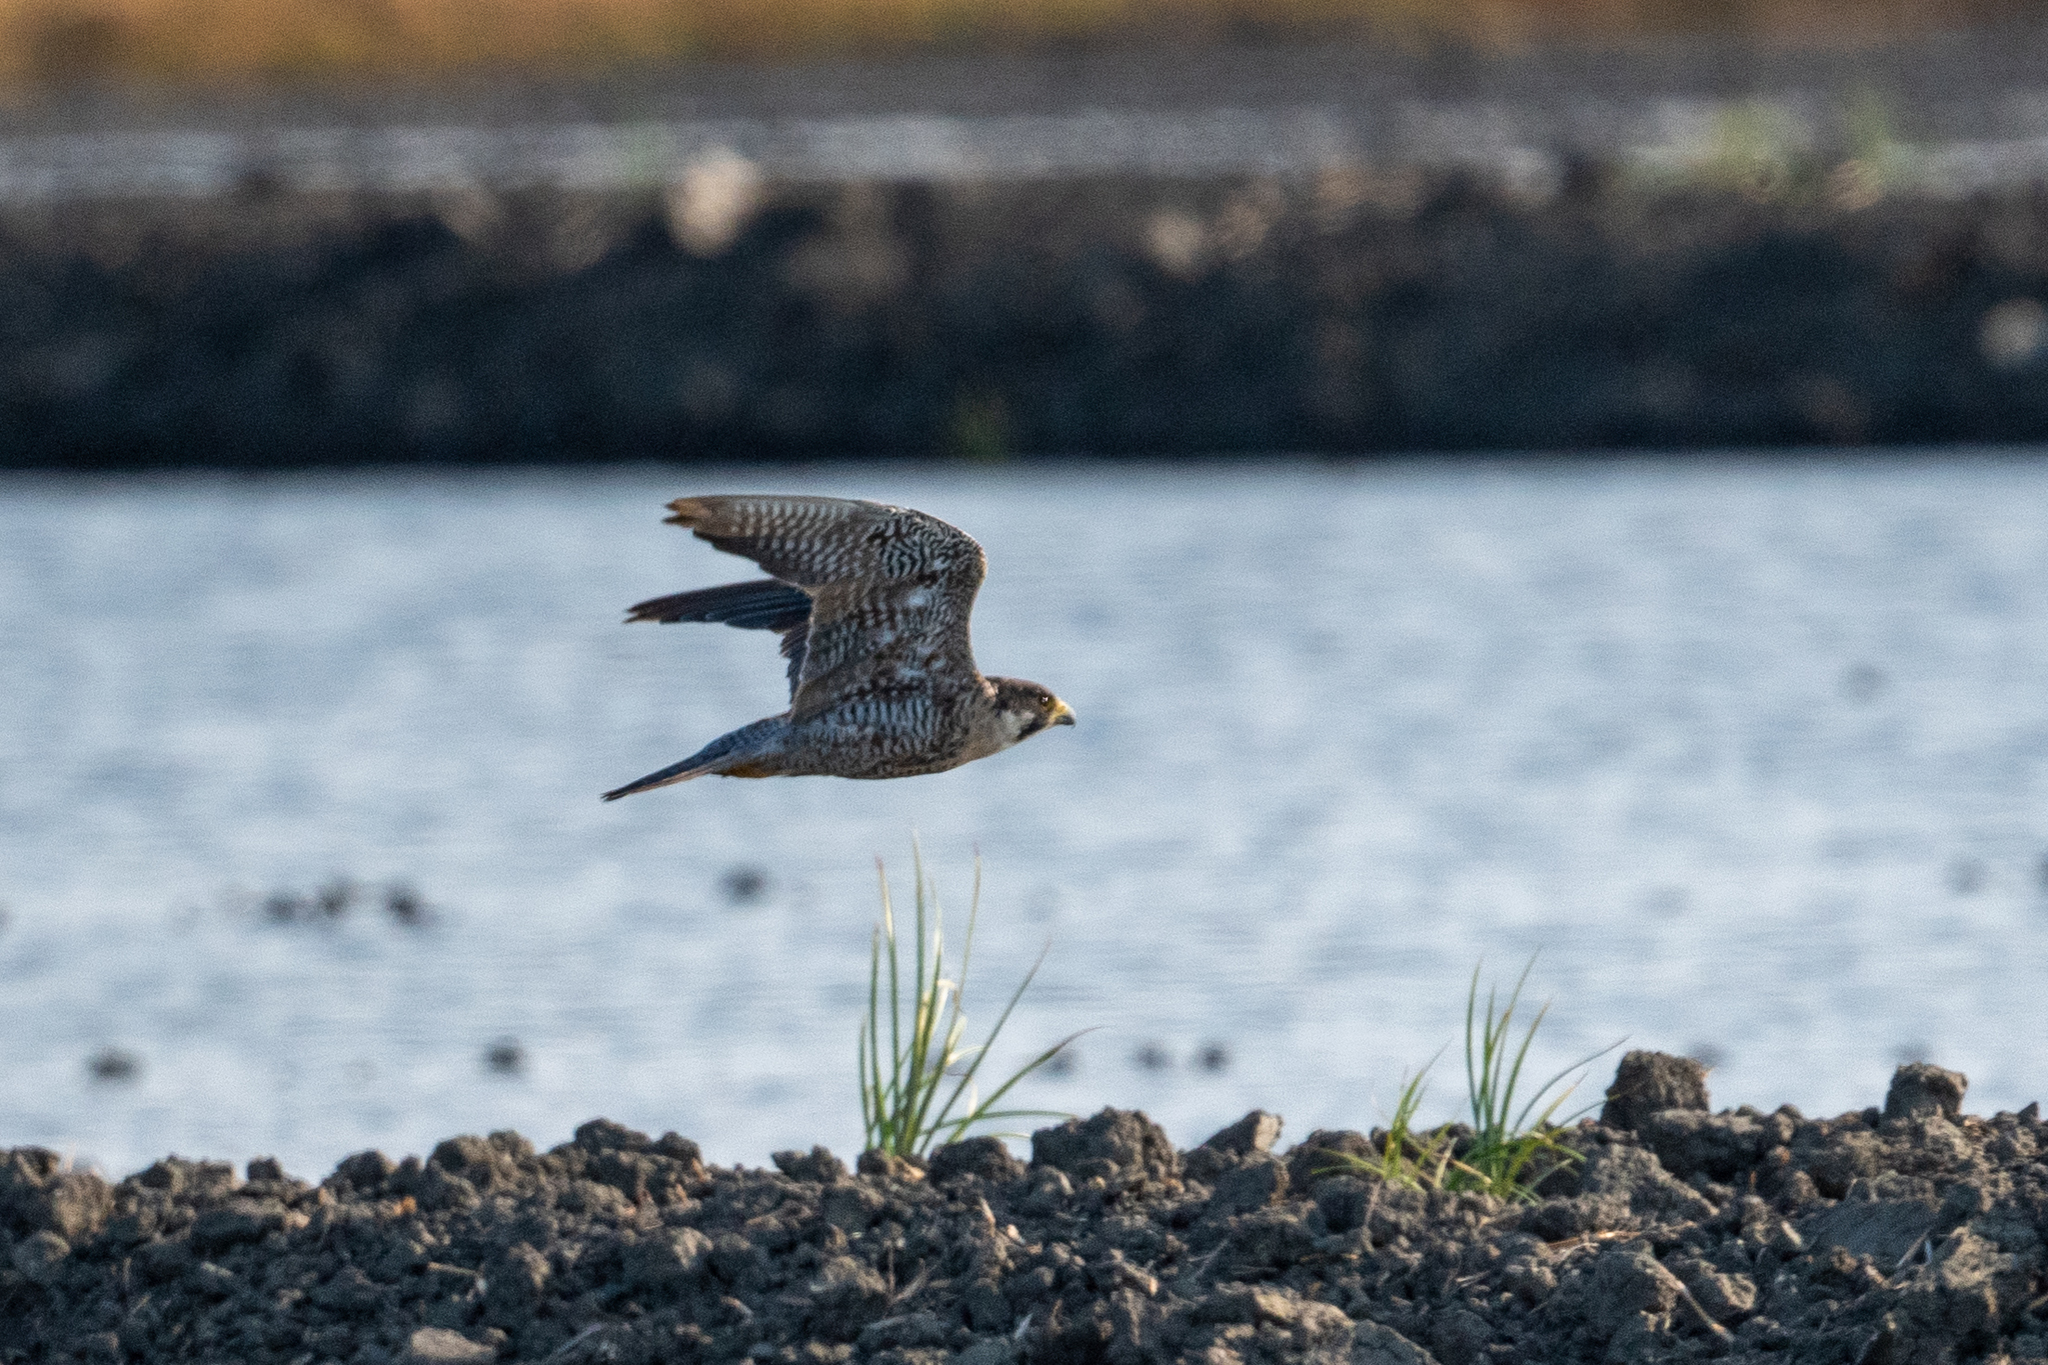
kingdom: Animalia
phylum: Chordata
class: Aves
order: Falconiformes
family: Falconidae
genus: Falco
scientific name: Falco peregrinus
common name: Peregrine falcon
